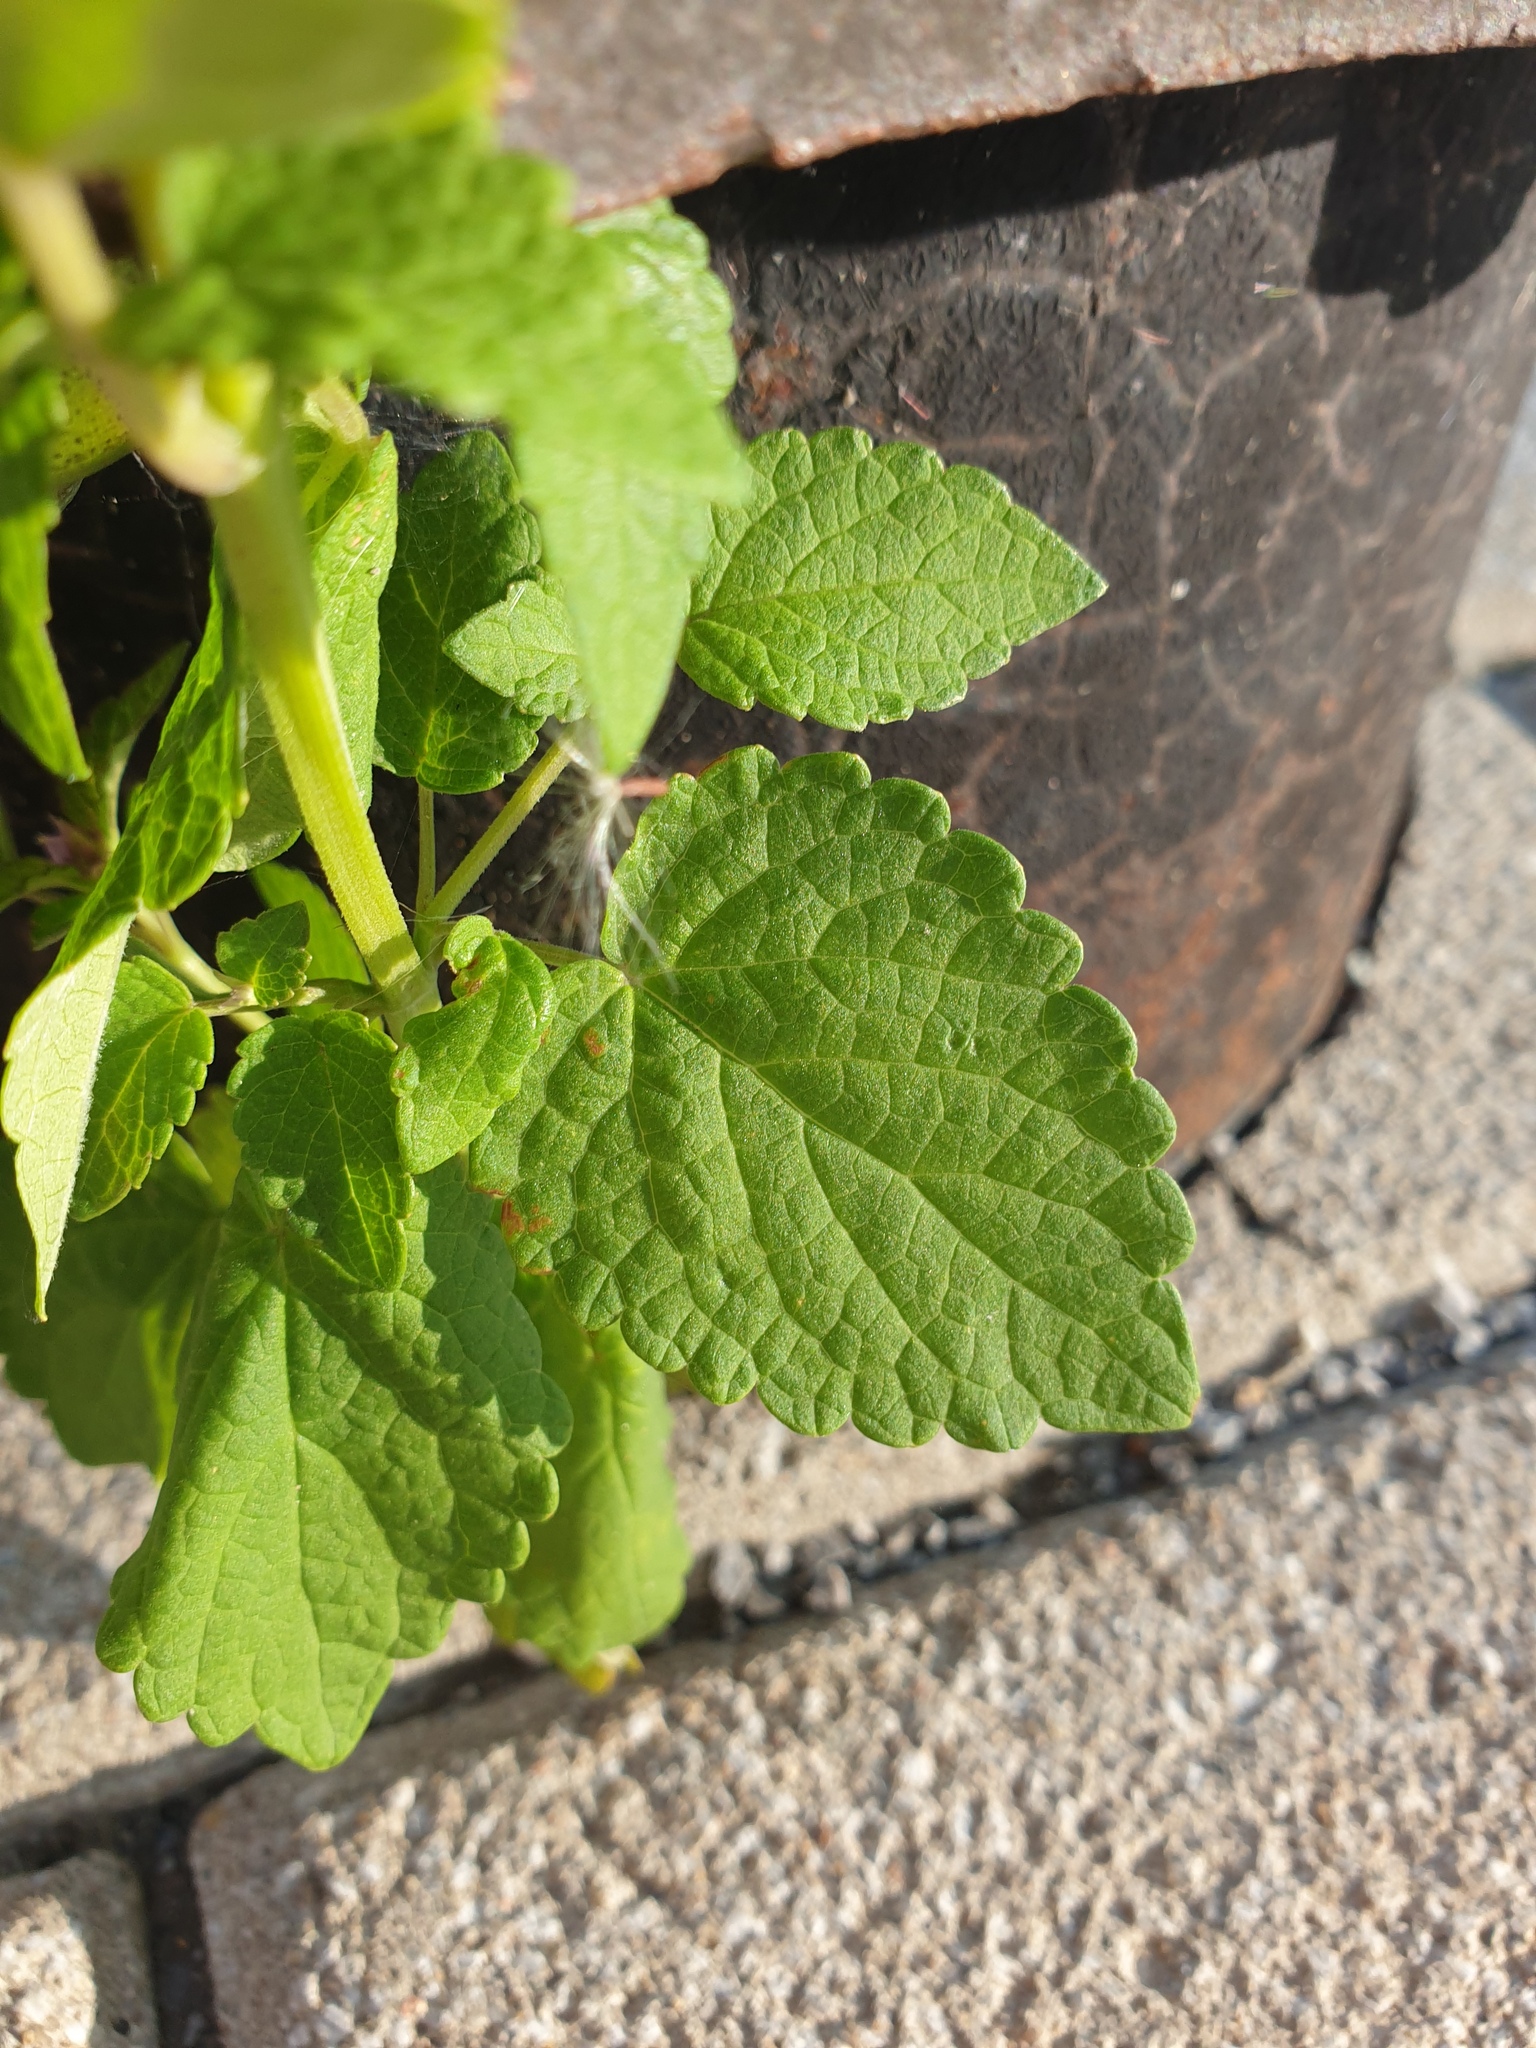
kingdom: Plantae
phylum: Tracheophyta
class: Magnoliopsida
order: Lamiales
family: Lamiaceae
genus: Agastache
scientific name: Agastache rugosa
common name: Mint
